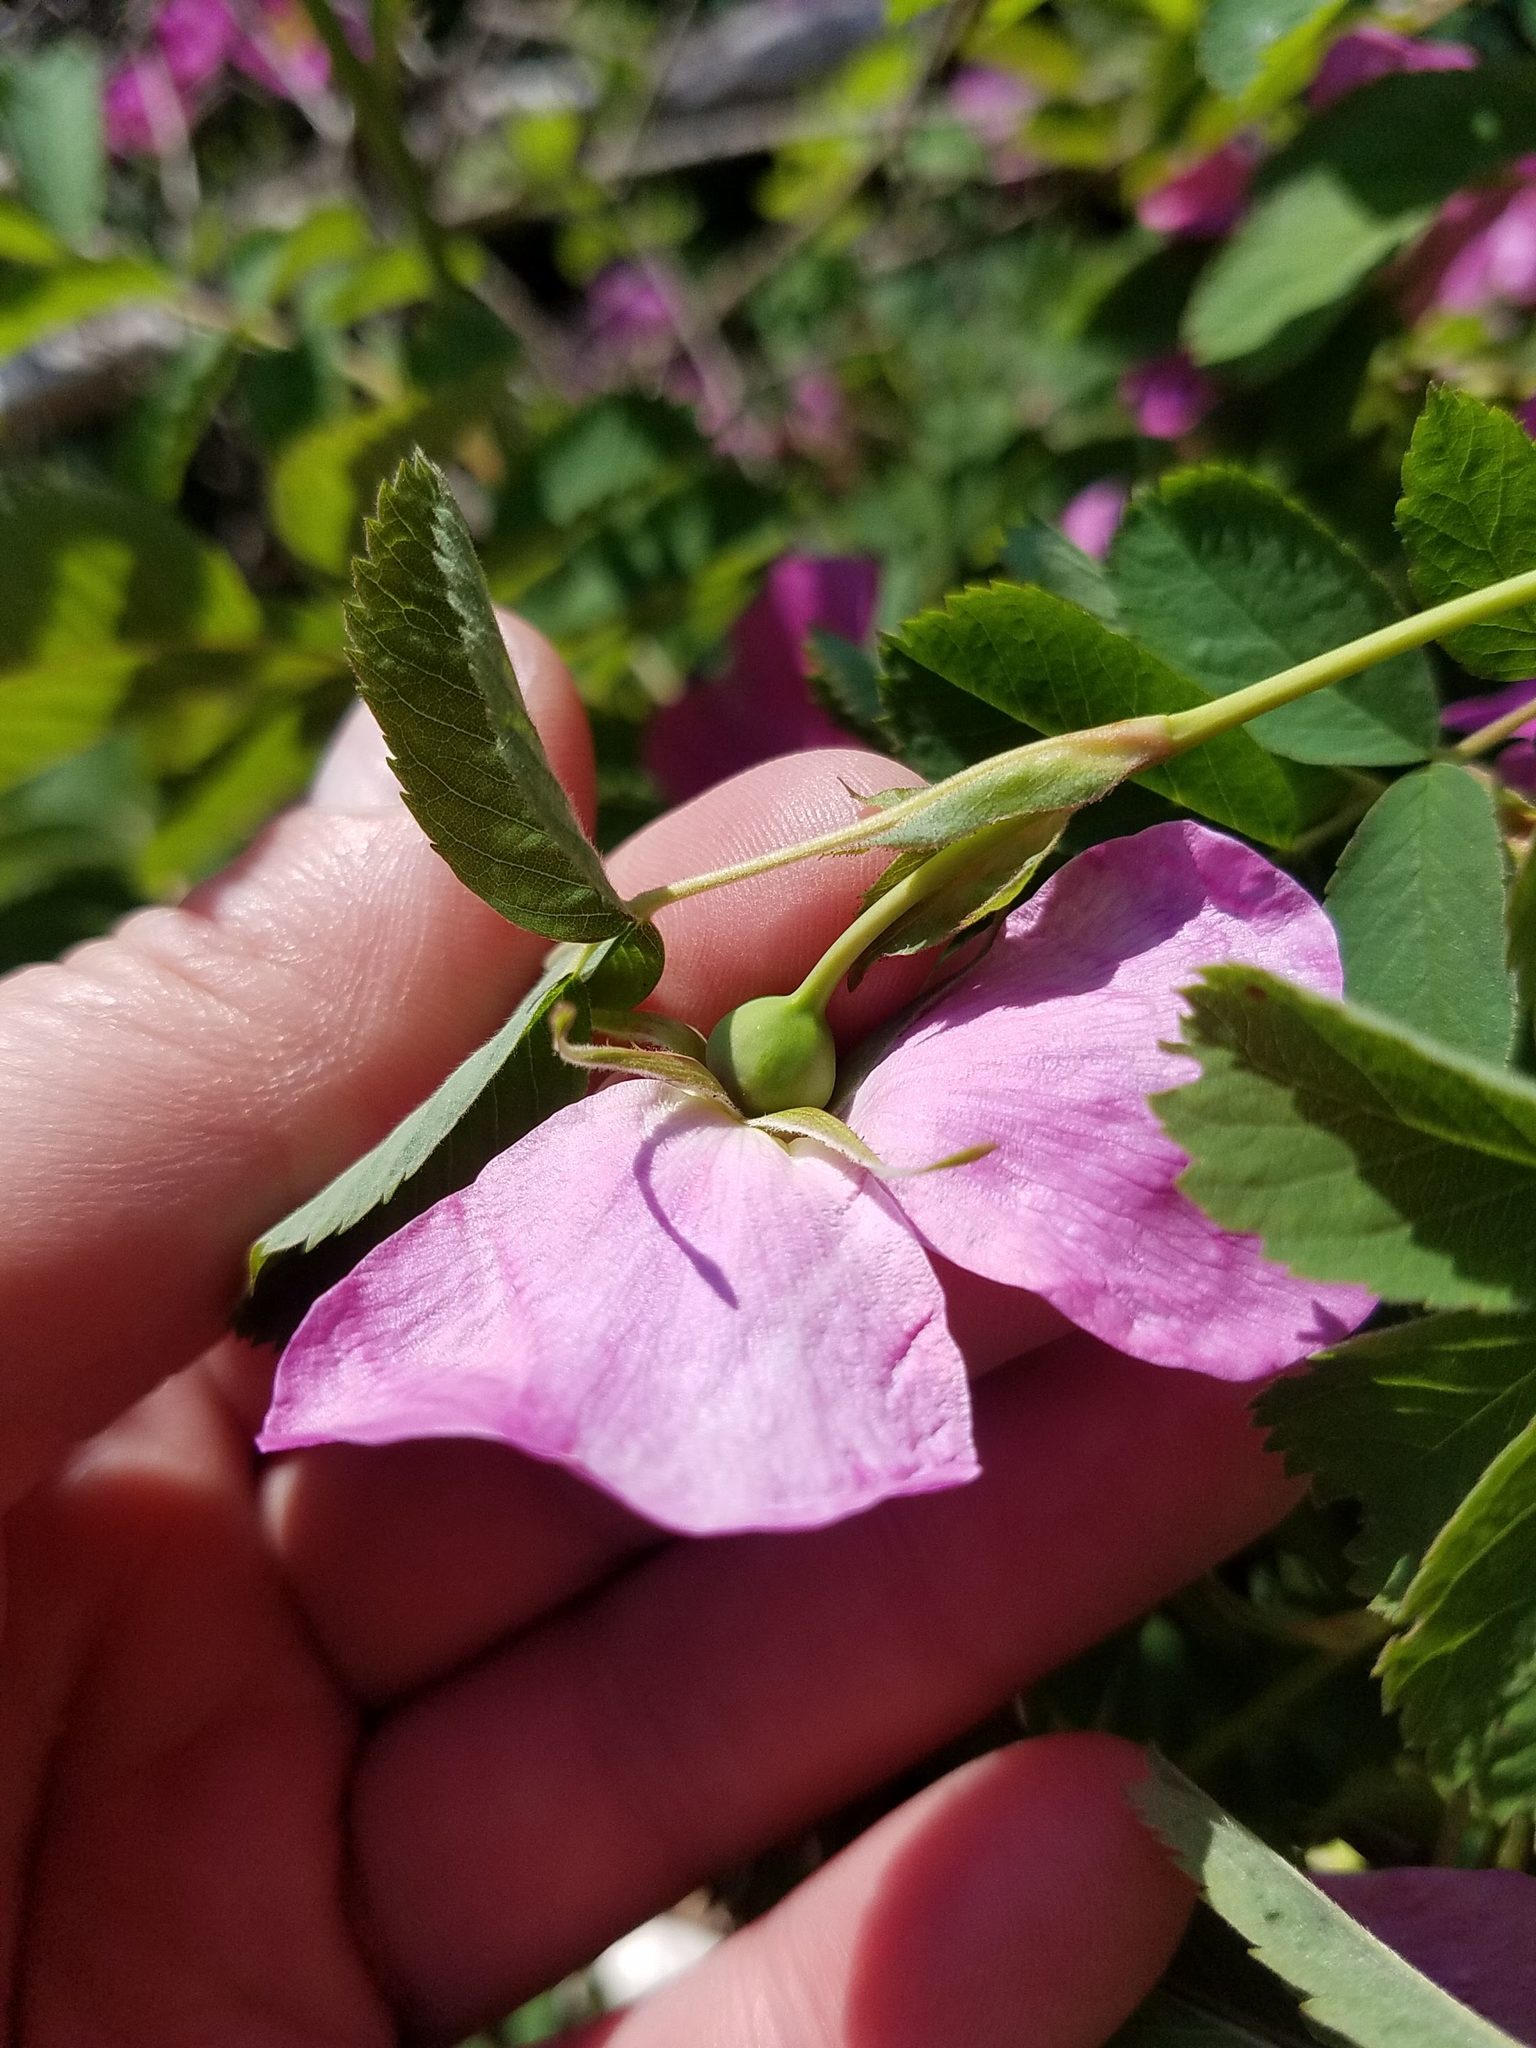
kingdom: Plantae
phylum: Tracheophyta
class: Magnoliopsida
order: Rosales
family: Rosaceae
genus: Rosa
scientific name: Rosa blanda
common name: Smooth rose
